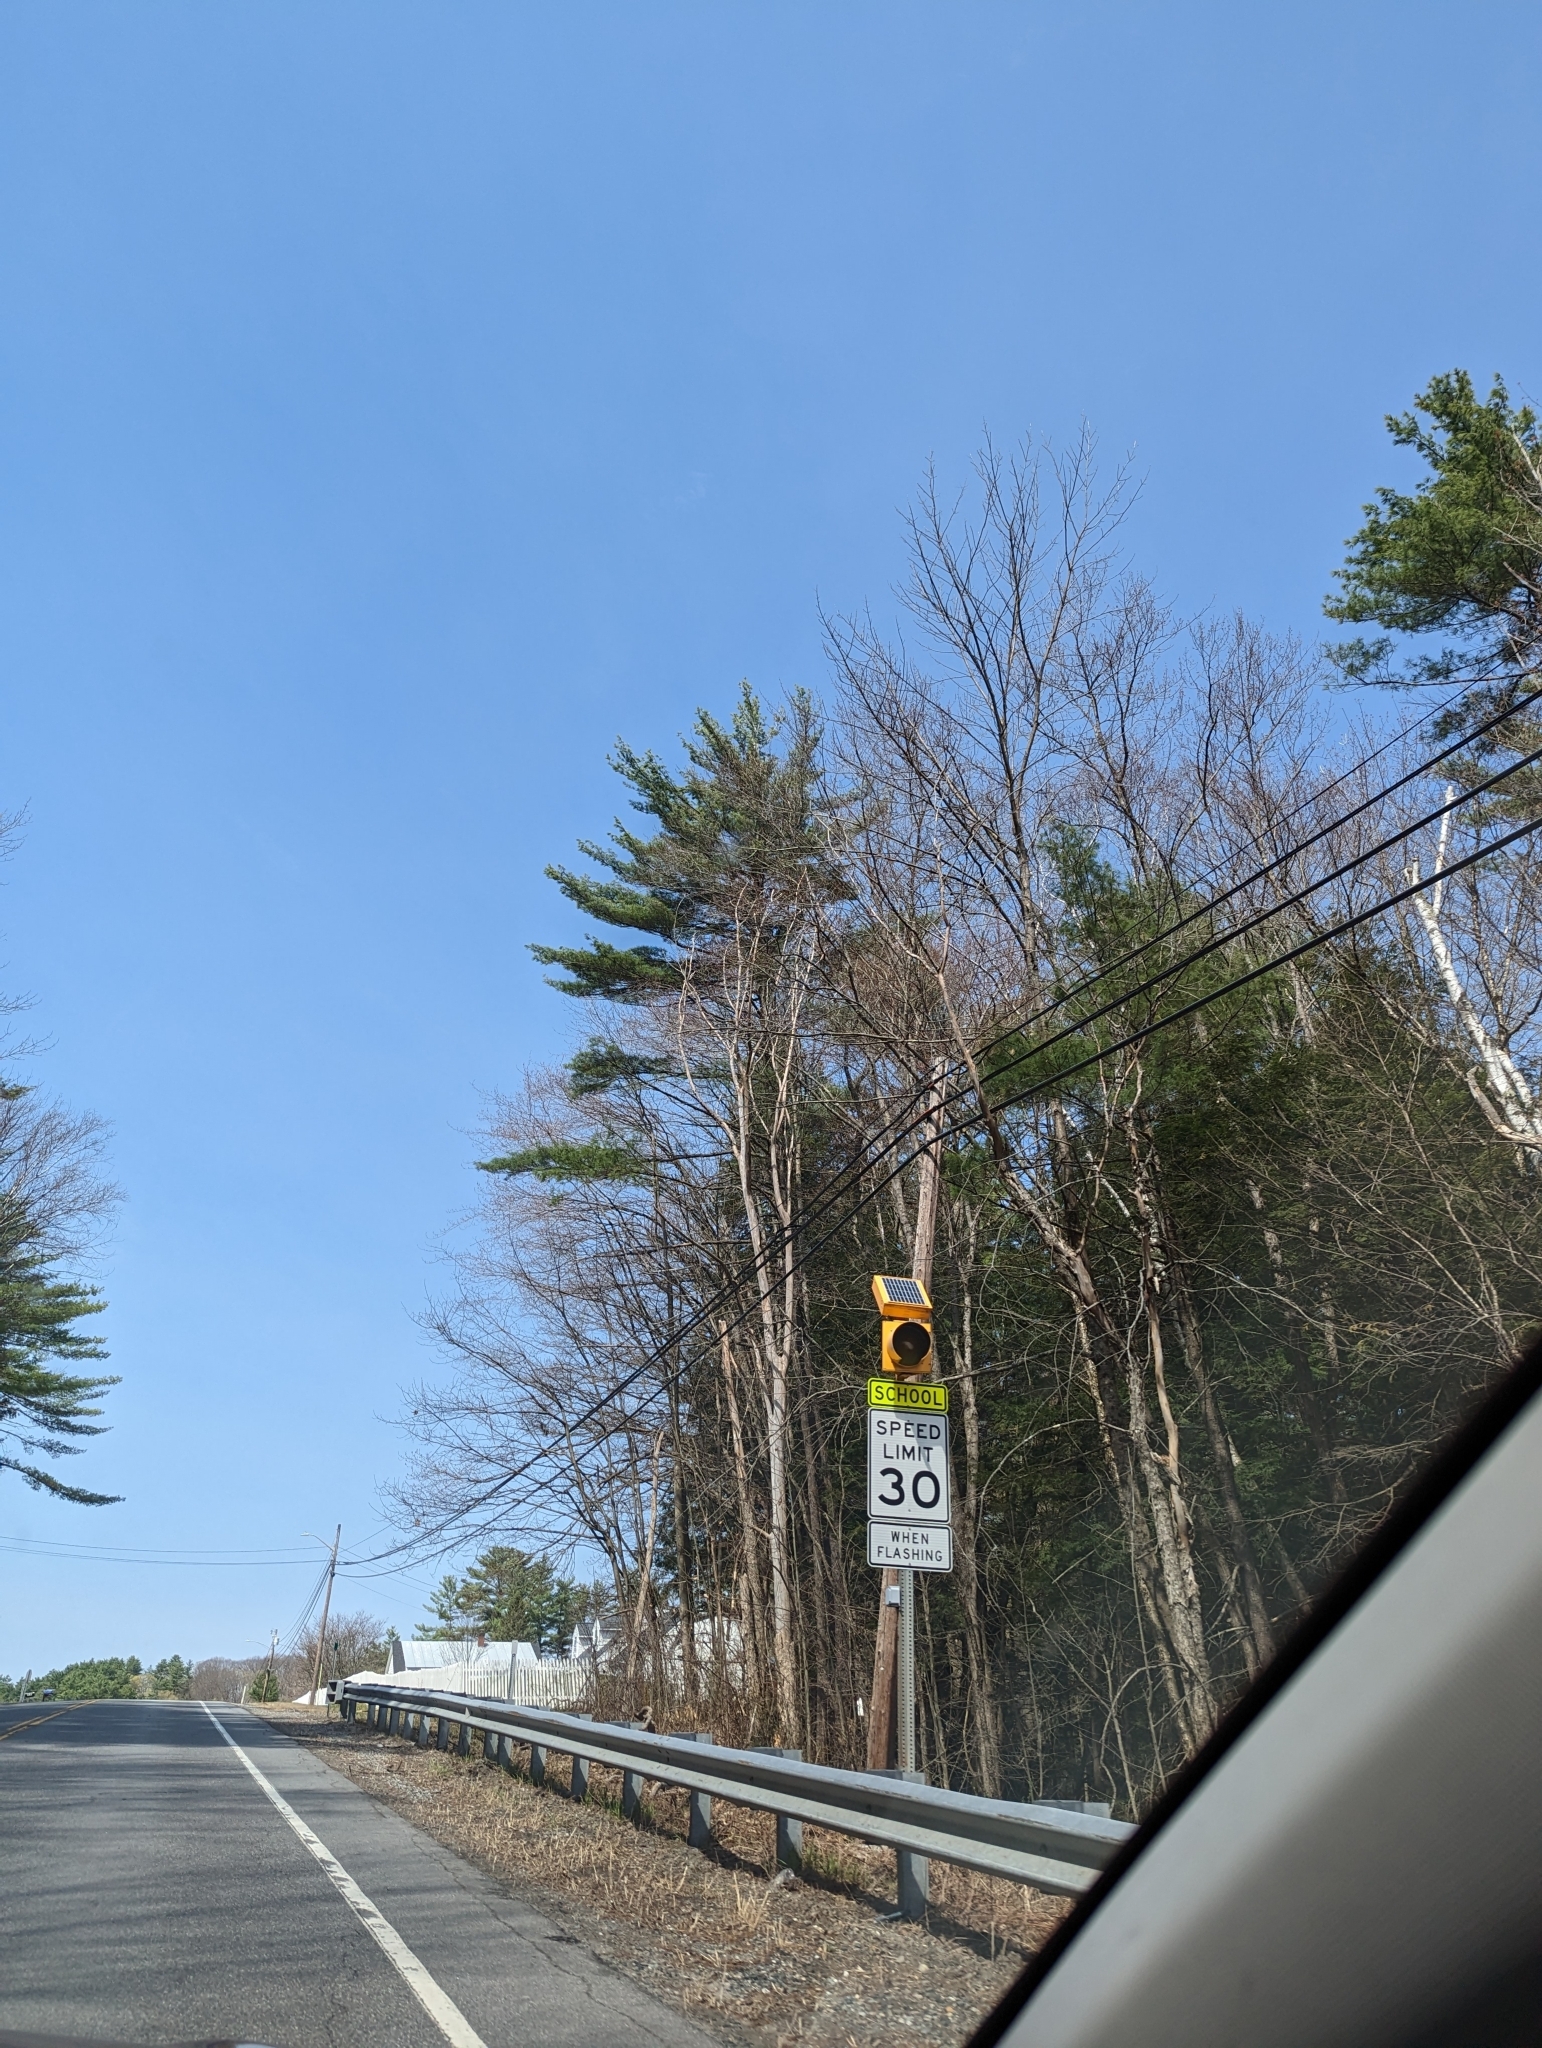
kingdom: Plantae
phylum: Tracheophyta
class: Pinopsida
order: Pinales
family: Pinaceae
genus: Pinus
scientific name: Pinus strobus
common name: Weymouth pine
